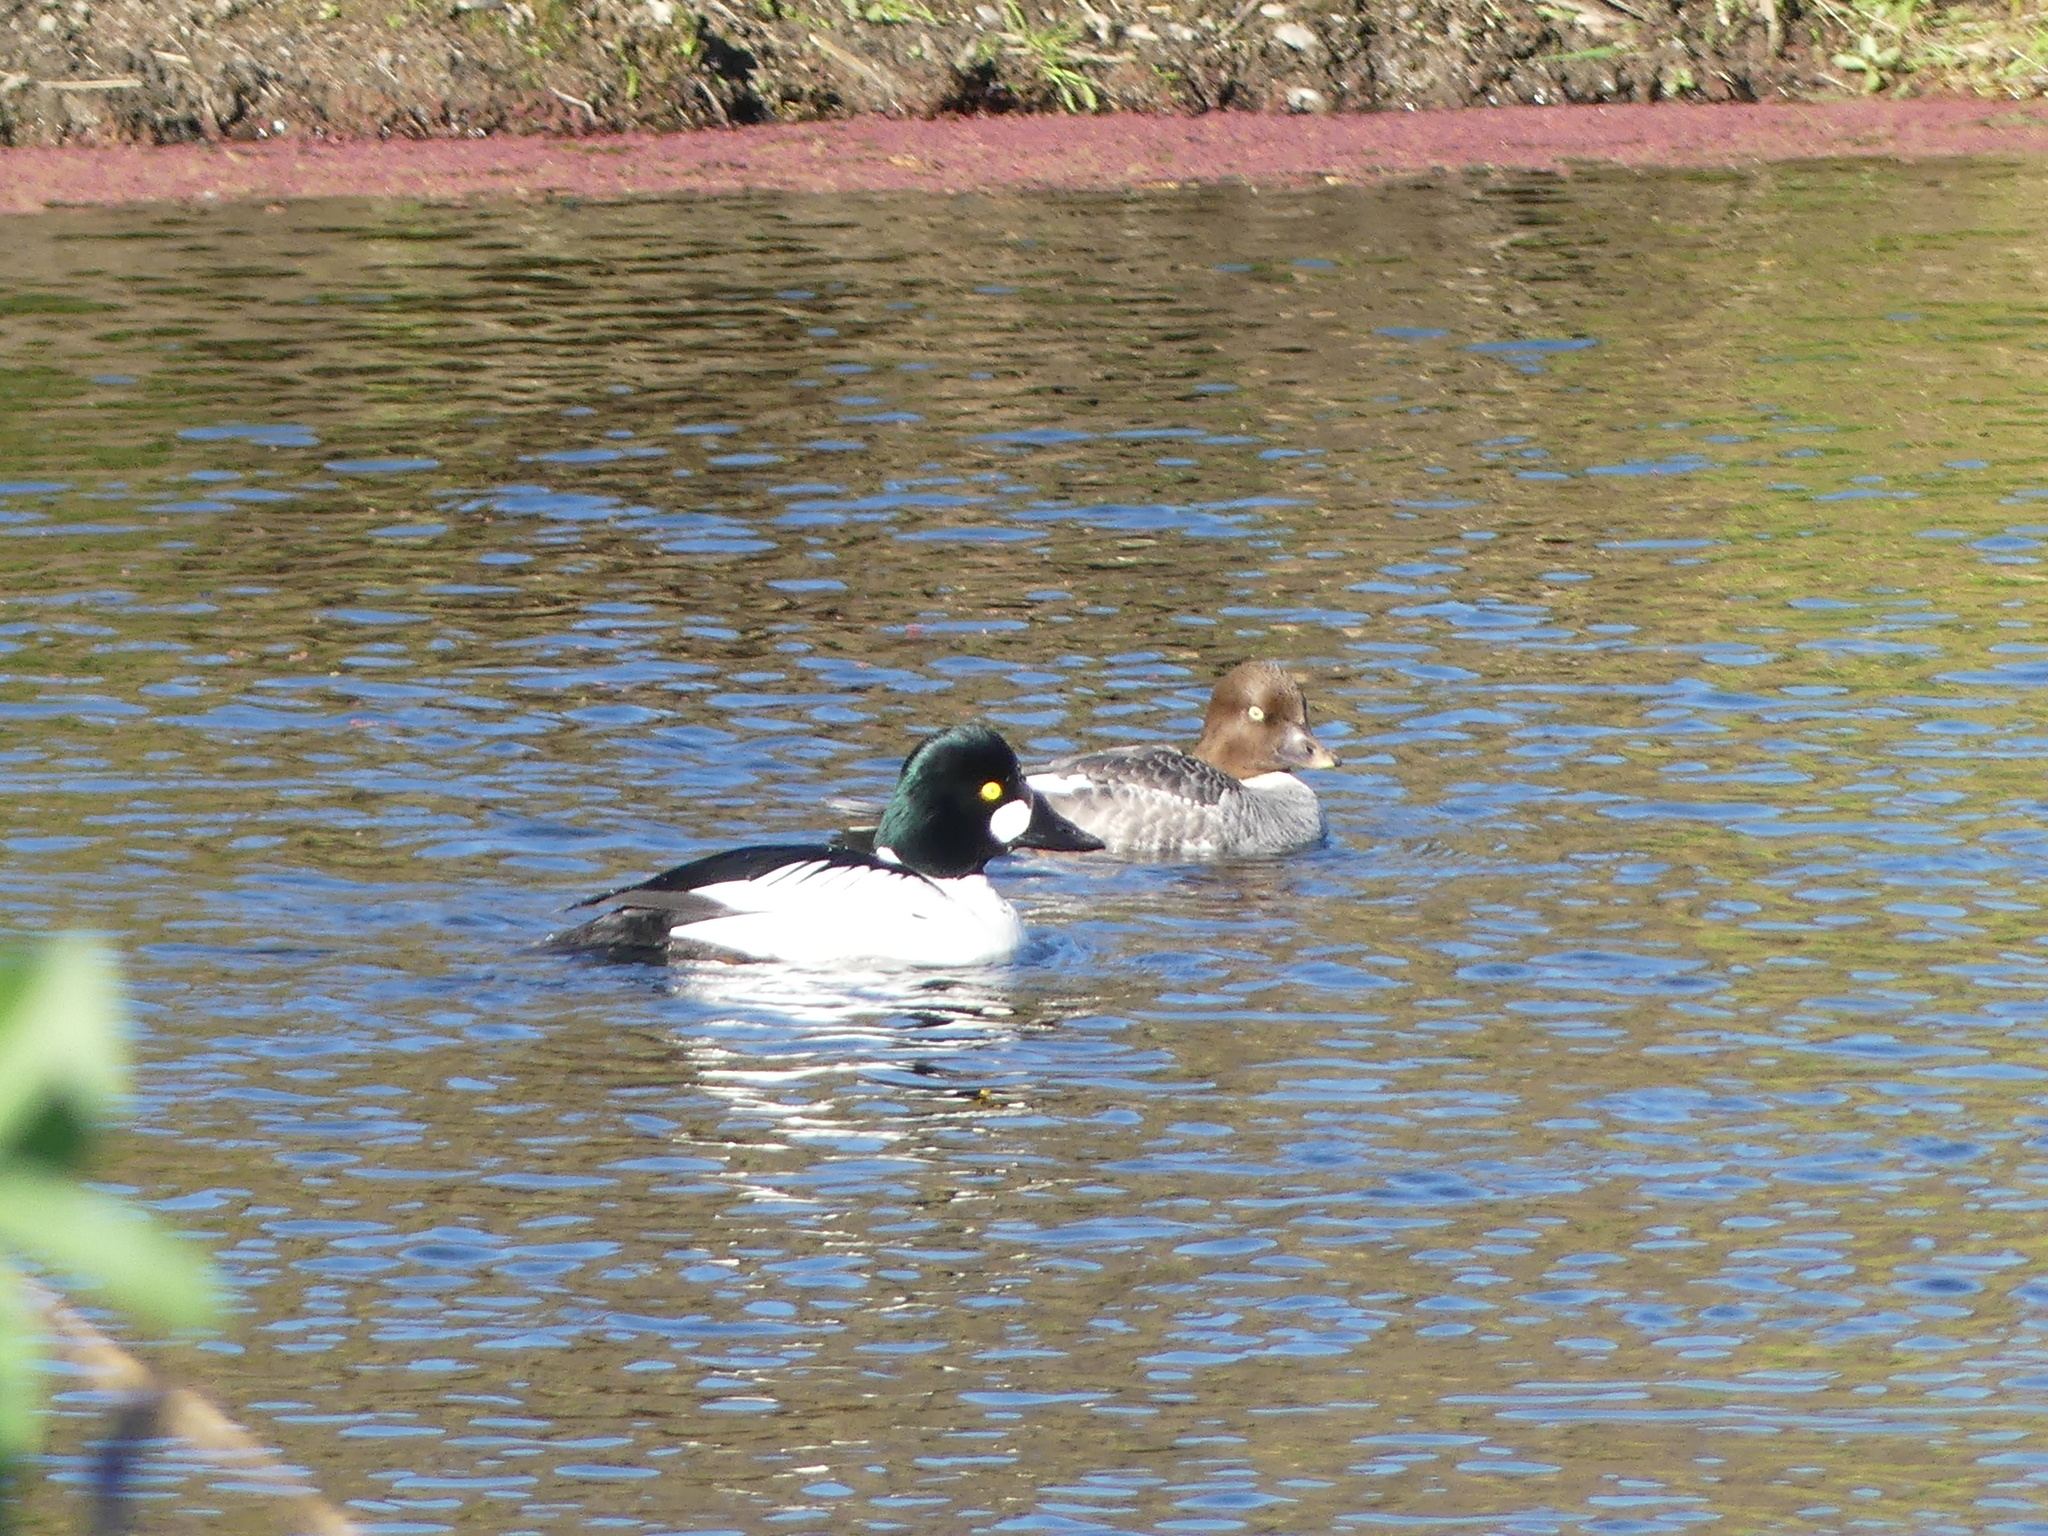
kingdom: Animalia
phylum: Chordata
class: Aves
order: Anseriformes
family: Anatidae
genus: Bucephala
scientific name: Bucephala clangula
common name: Common goldeneye
